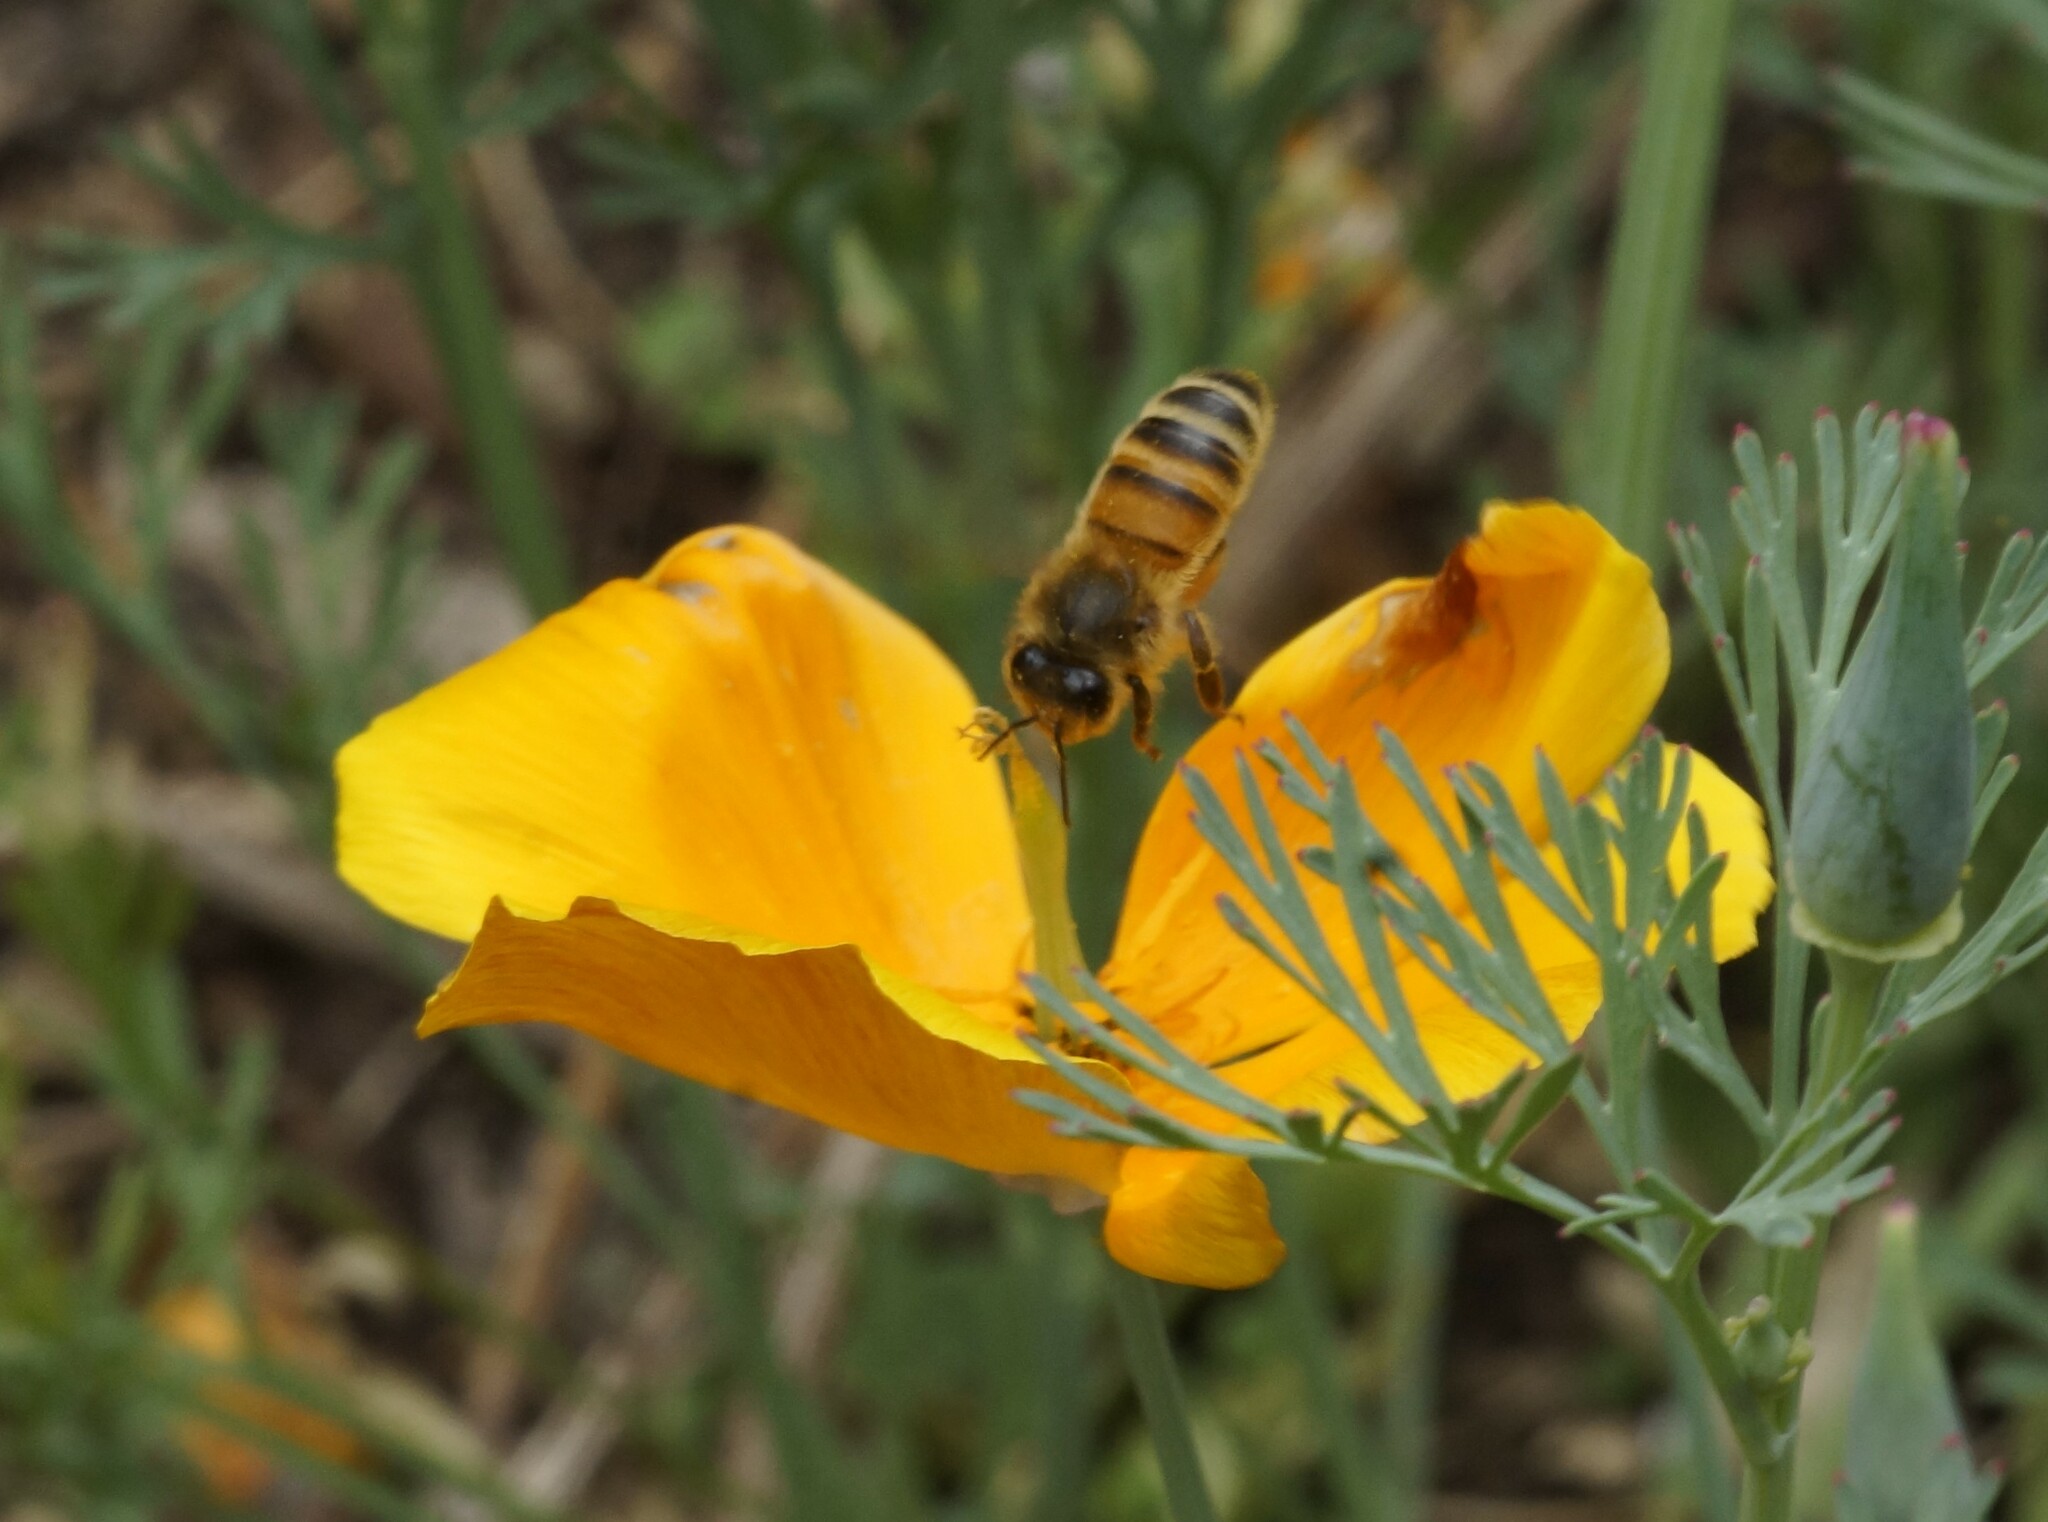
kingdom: Animalia
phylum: Arthropoda
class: Insecta
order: Hymenoptera
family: Apidae
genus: Apis
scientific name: Apis mellifera
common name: Honey bee
